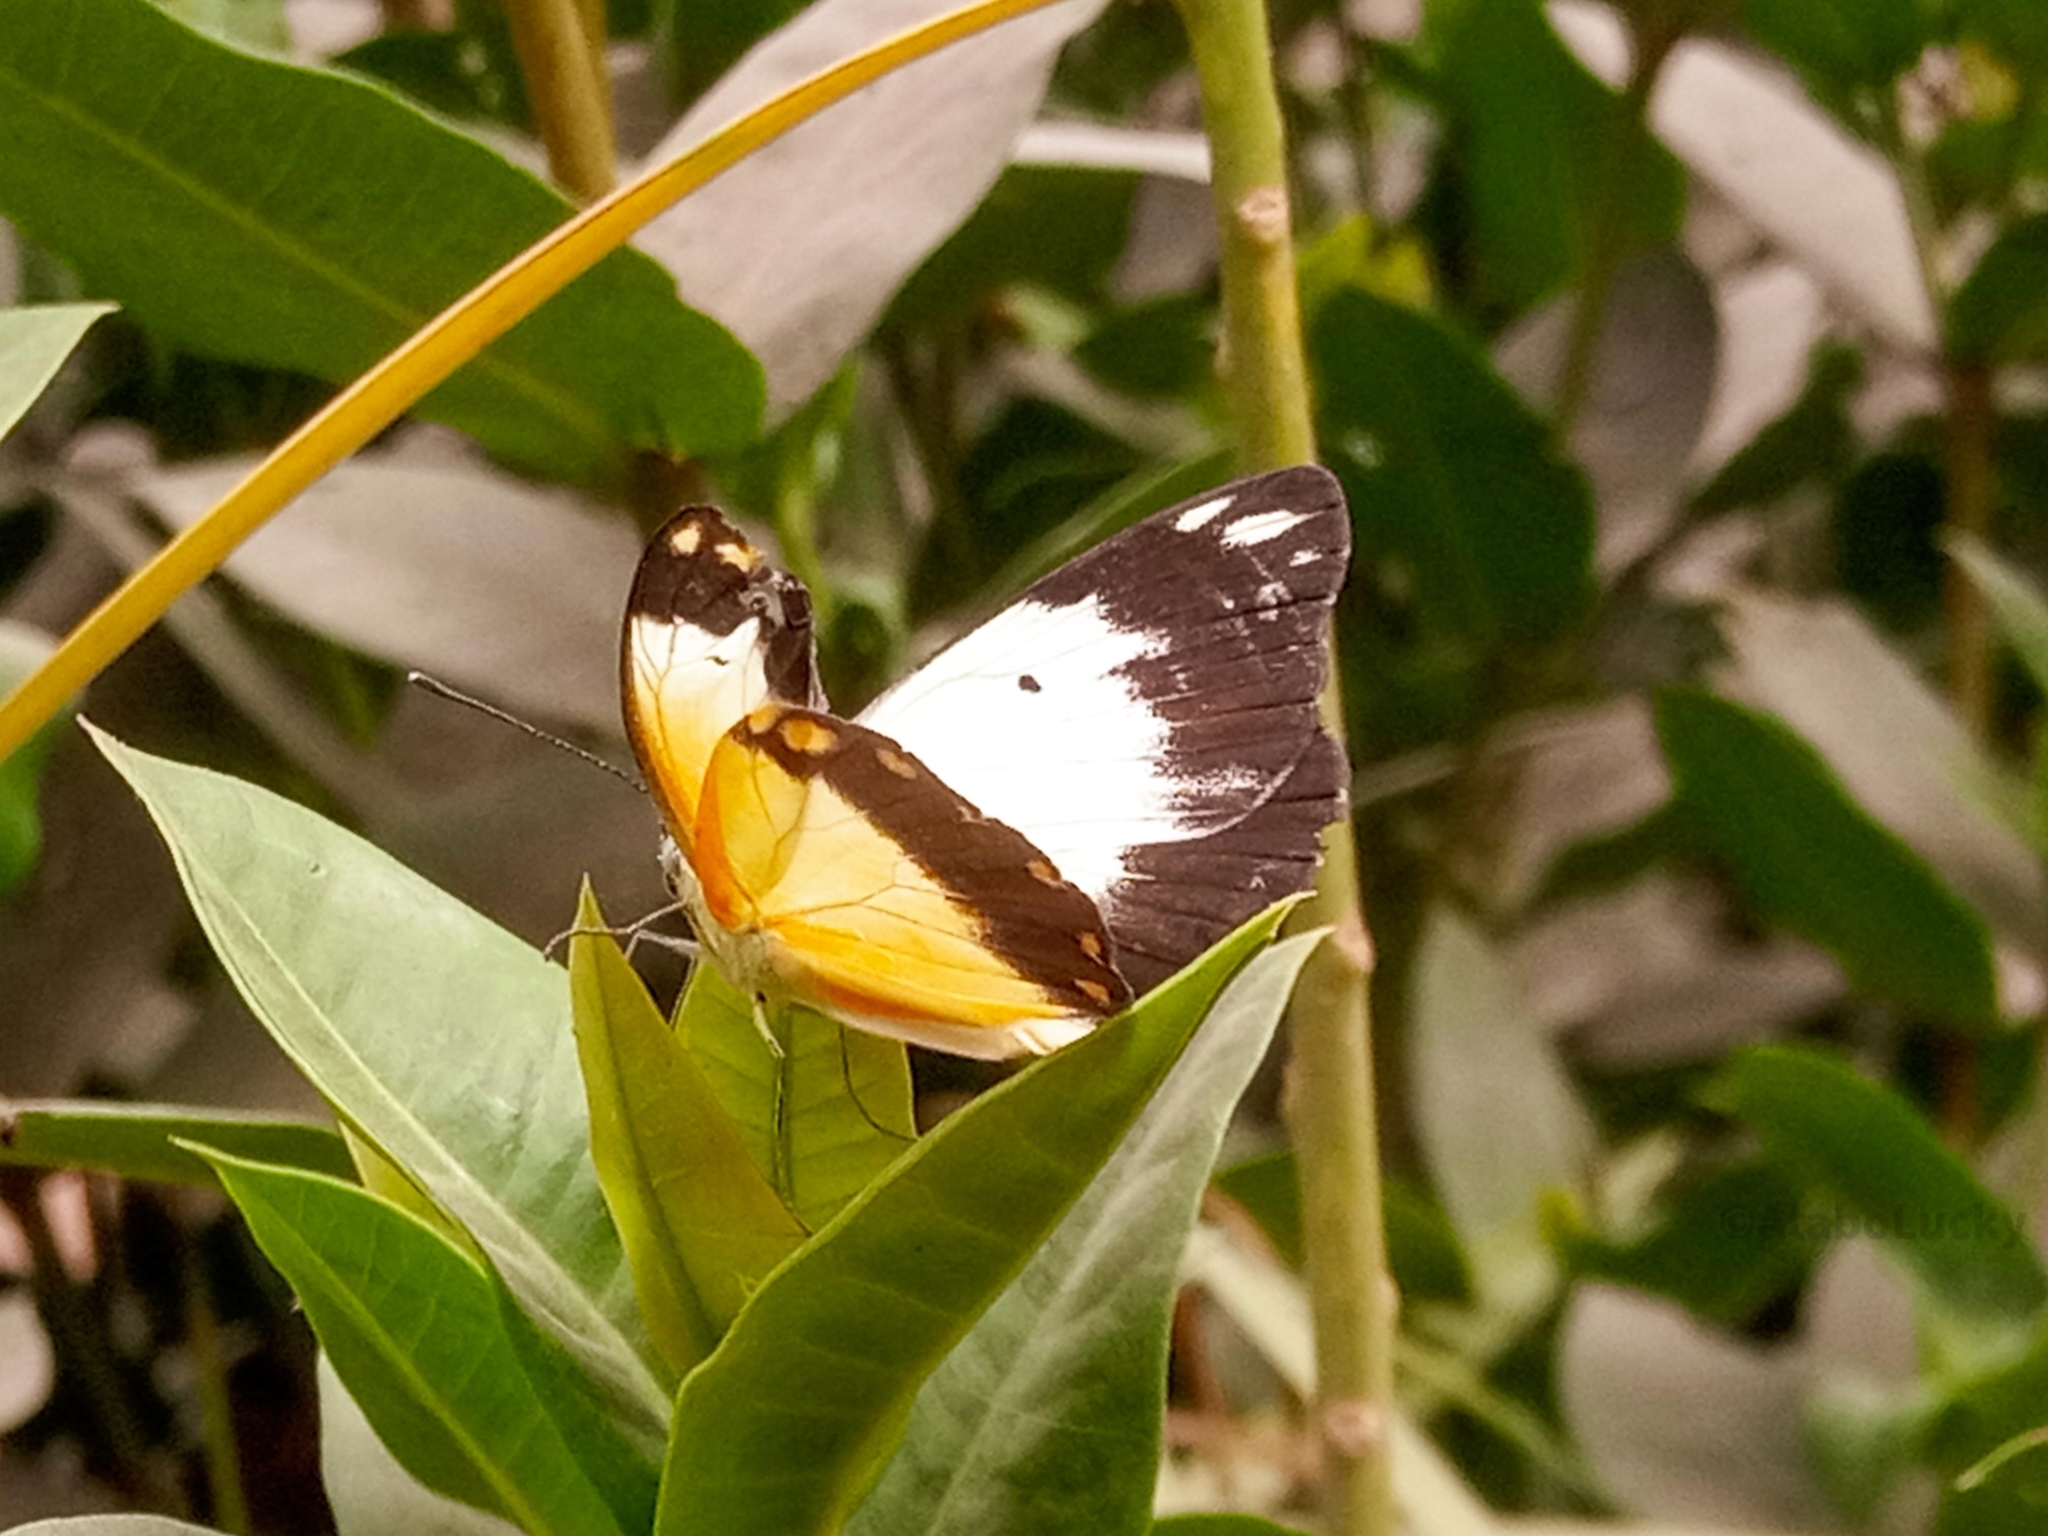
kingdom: Animalia
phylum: Arthropoda
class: Insecta
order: Lepidoptera
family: Pieridae
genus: Belenois
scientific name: Belenois creona
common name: African caper white
